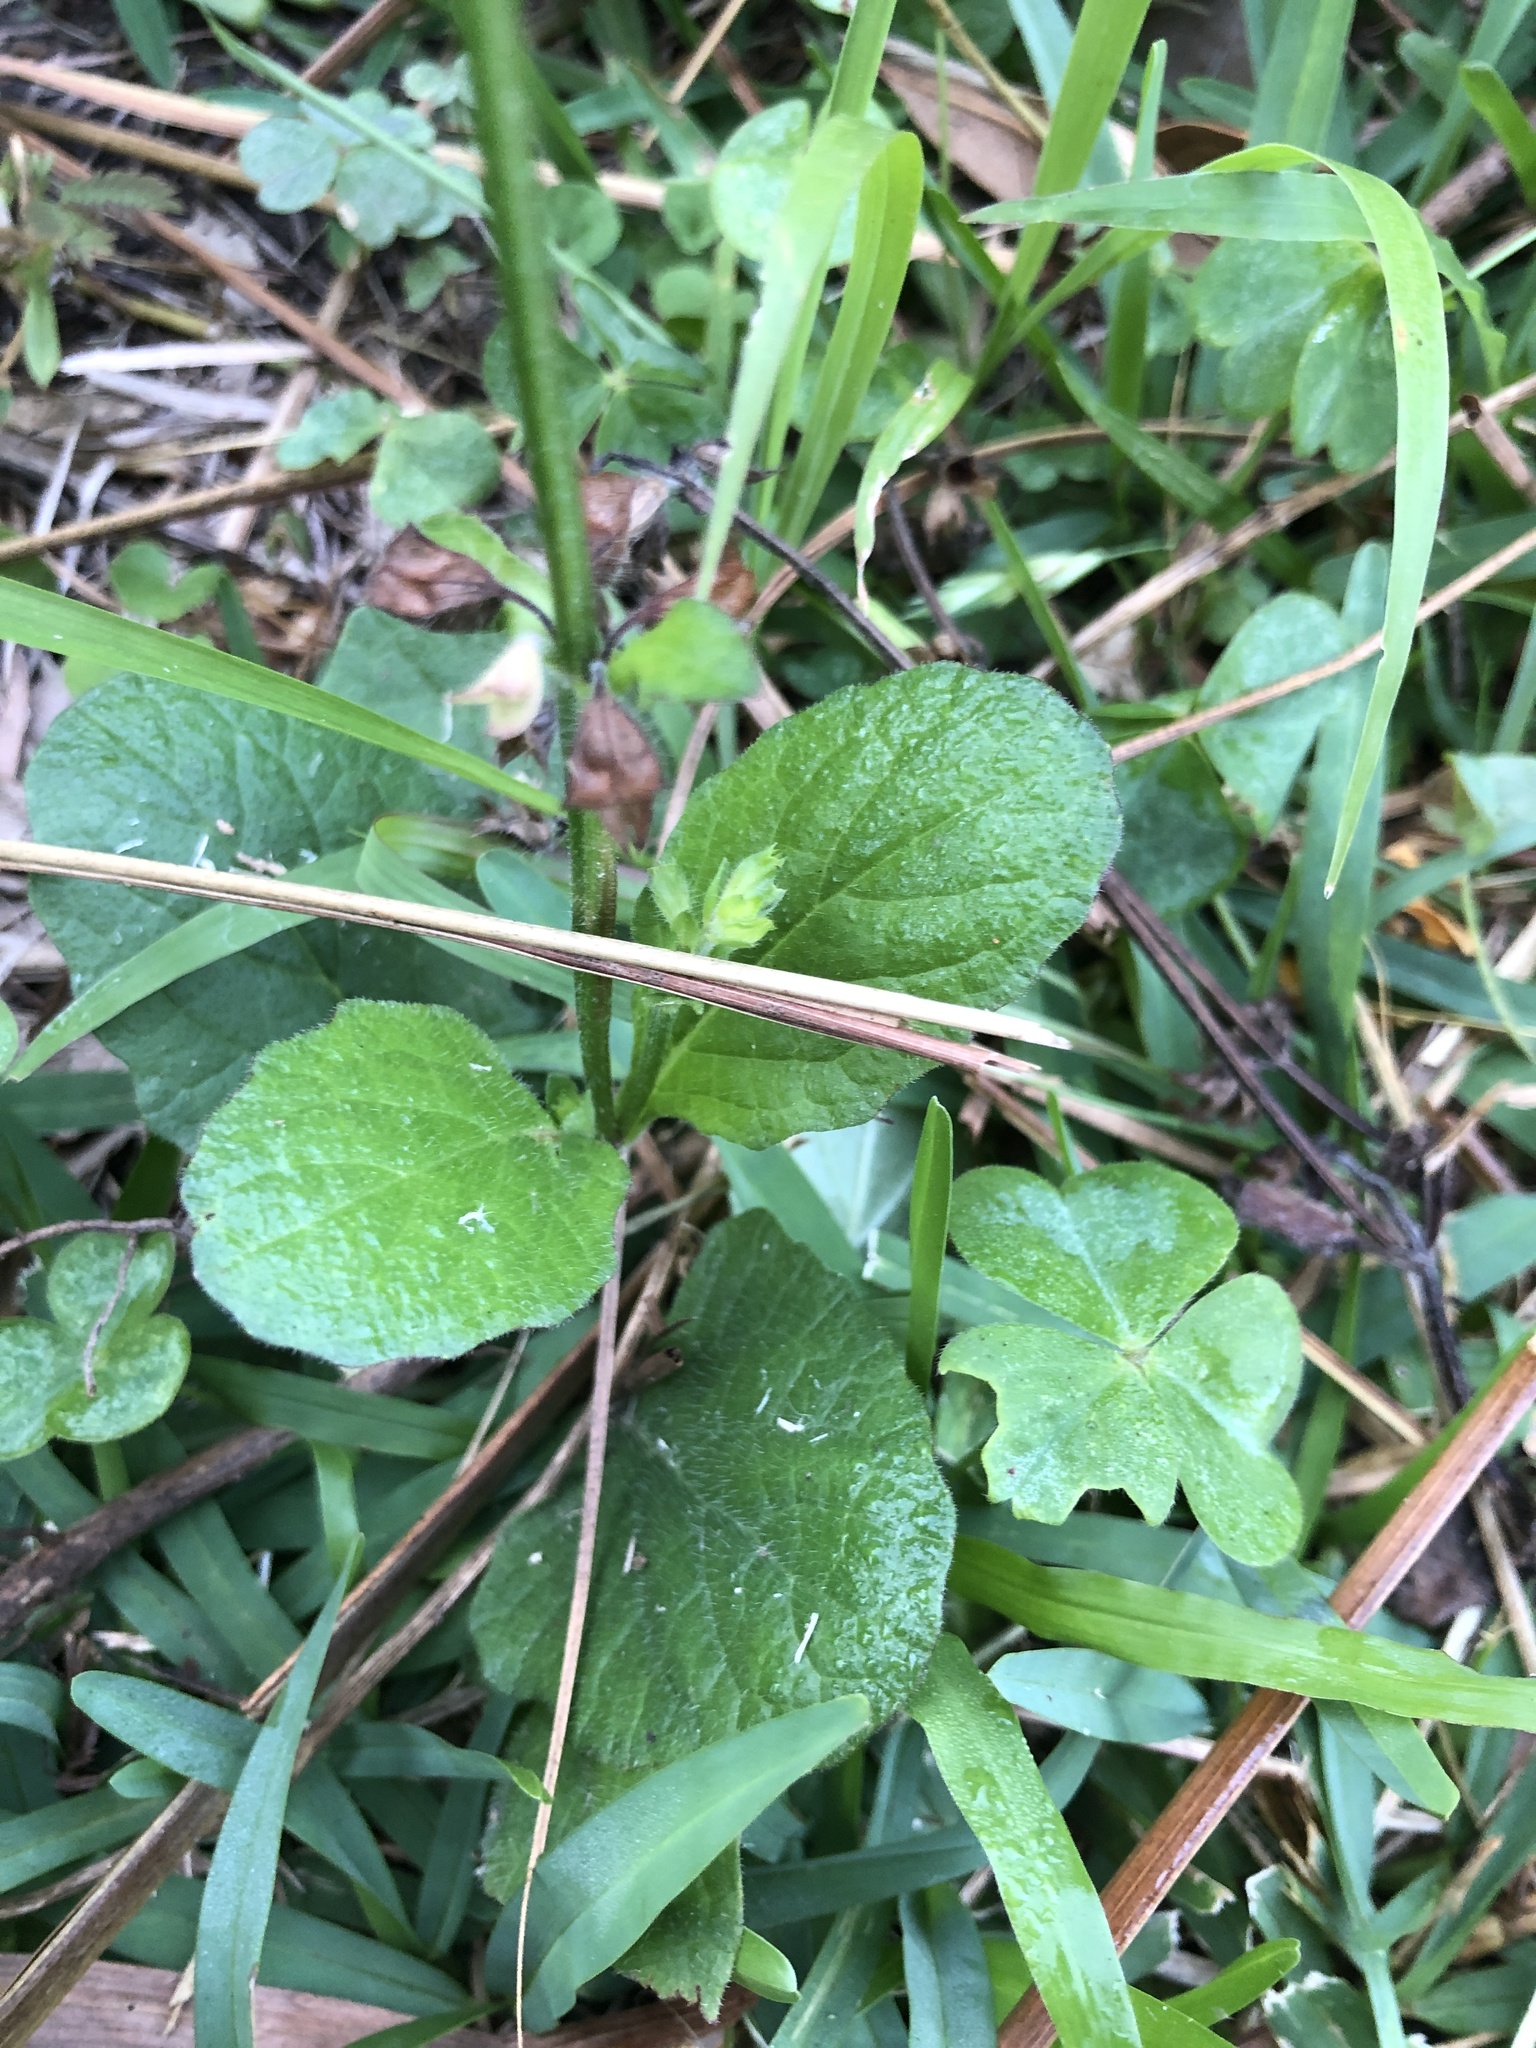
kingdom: Plantae
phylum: Tracheophyta
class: Magnoliopsida
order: Lamiales
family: Lamiaceae
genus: Salvia
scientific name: Salvia lyrata
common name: Cancerweed
